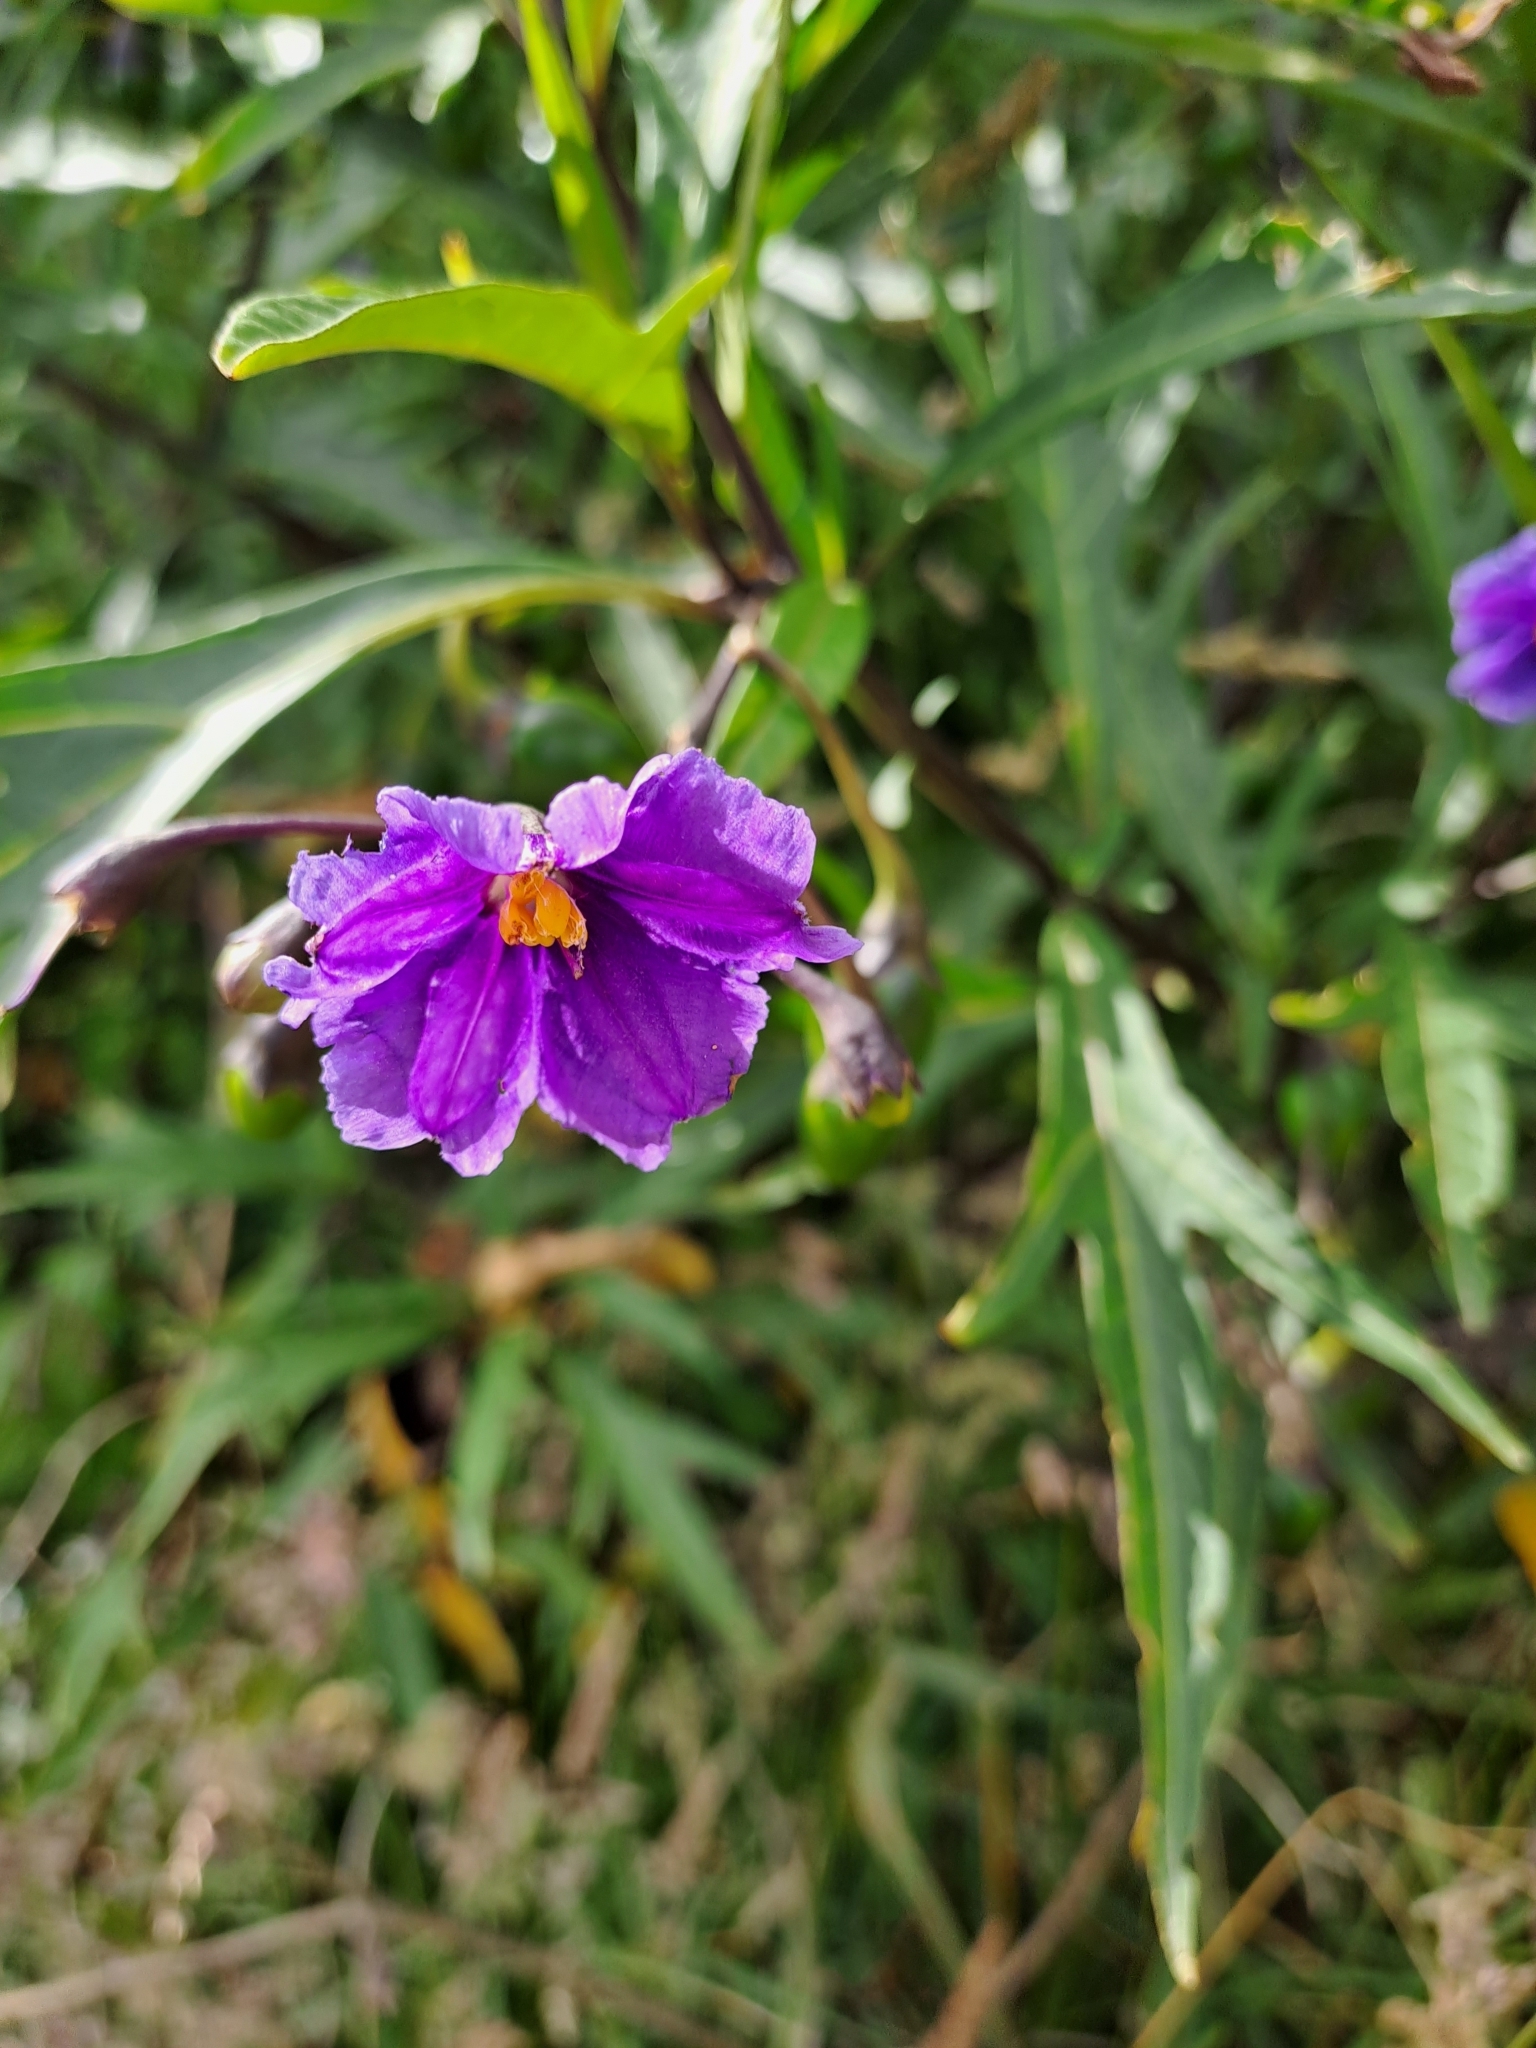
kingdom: Plantae
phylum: Tracheophyta
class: Magnoliopsida
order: Solanales
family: Solanaceae
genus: Solanum
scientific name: Solanum laciniatum
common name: Kangaroo-apple
